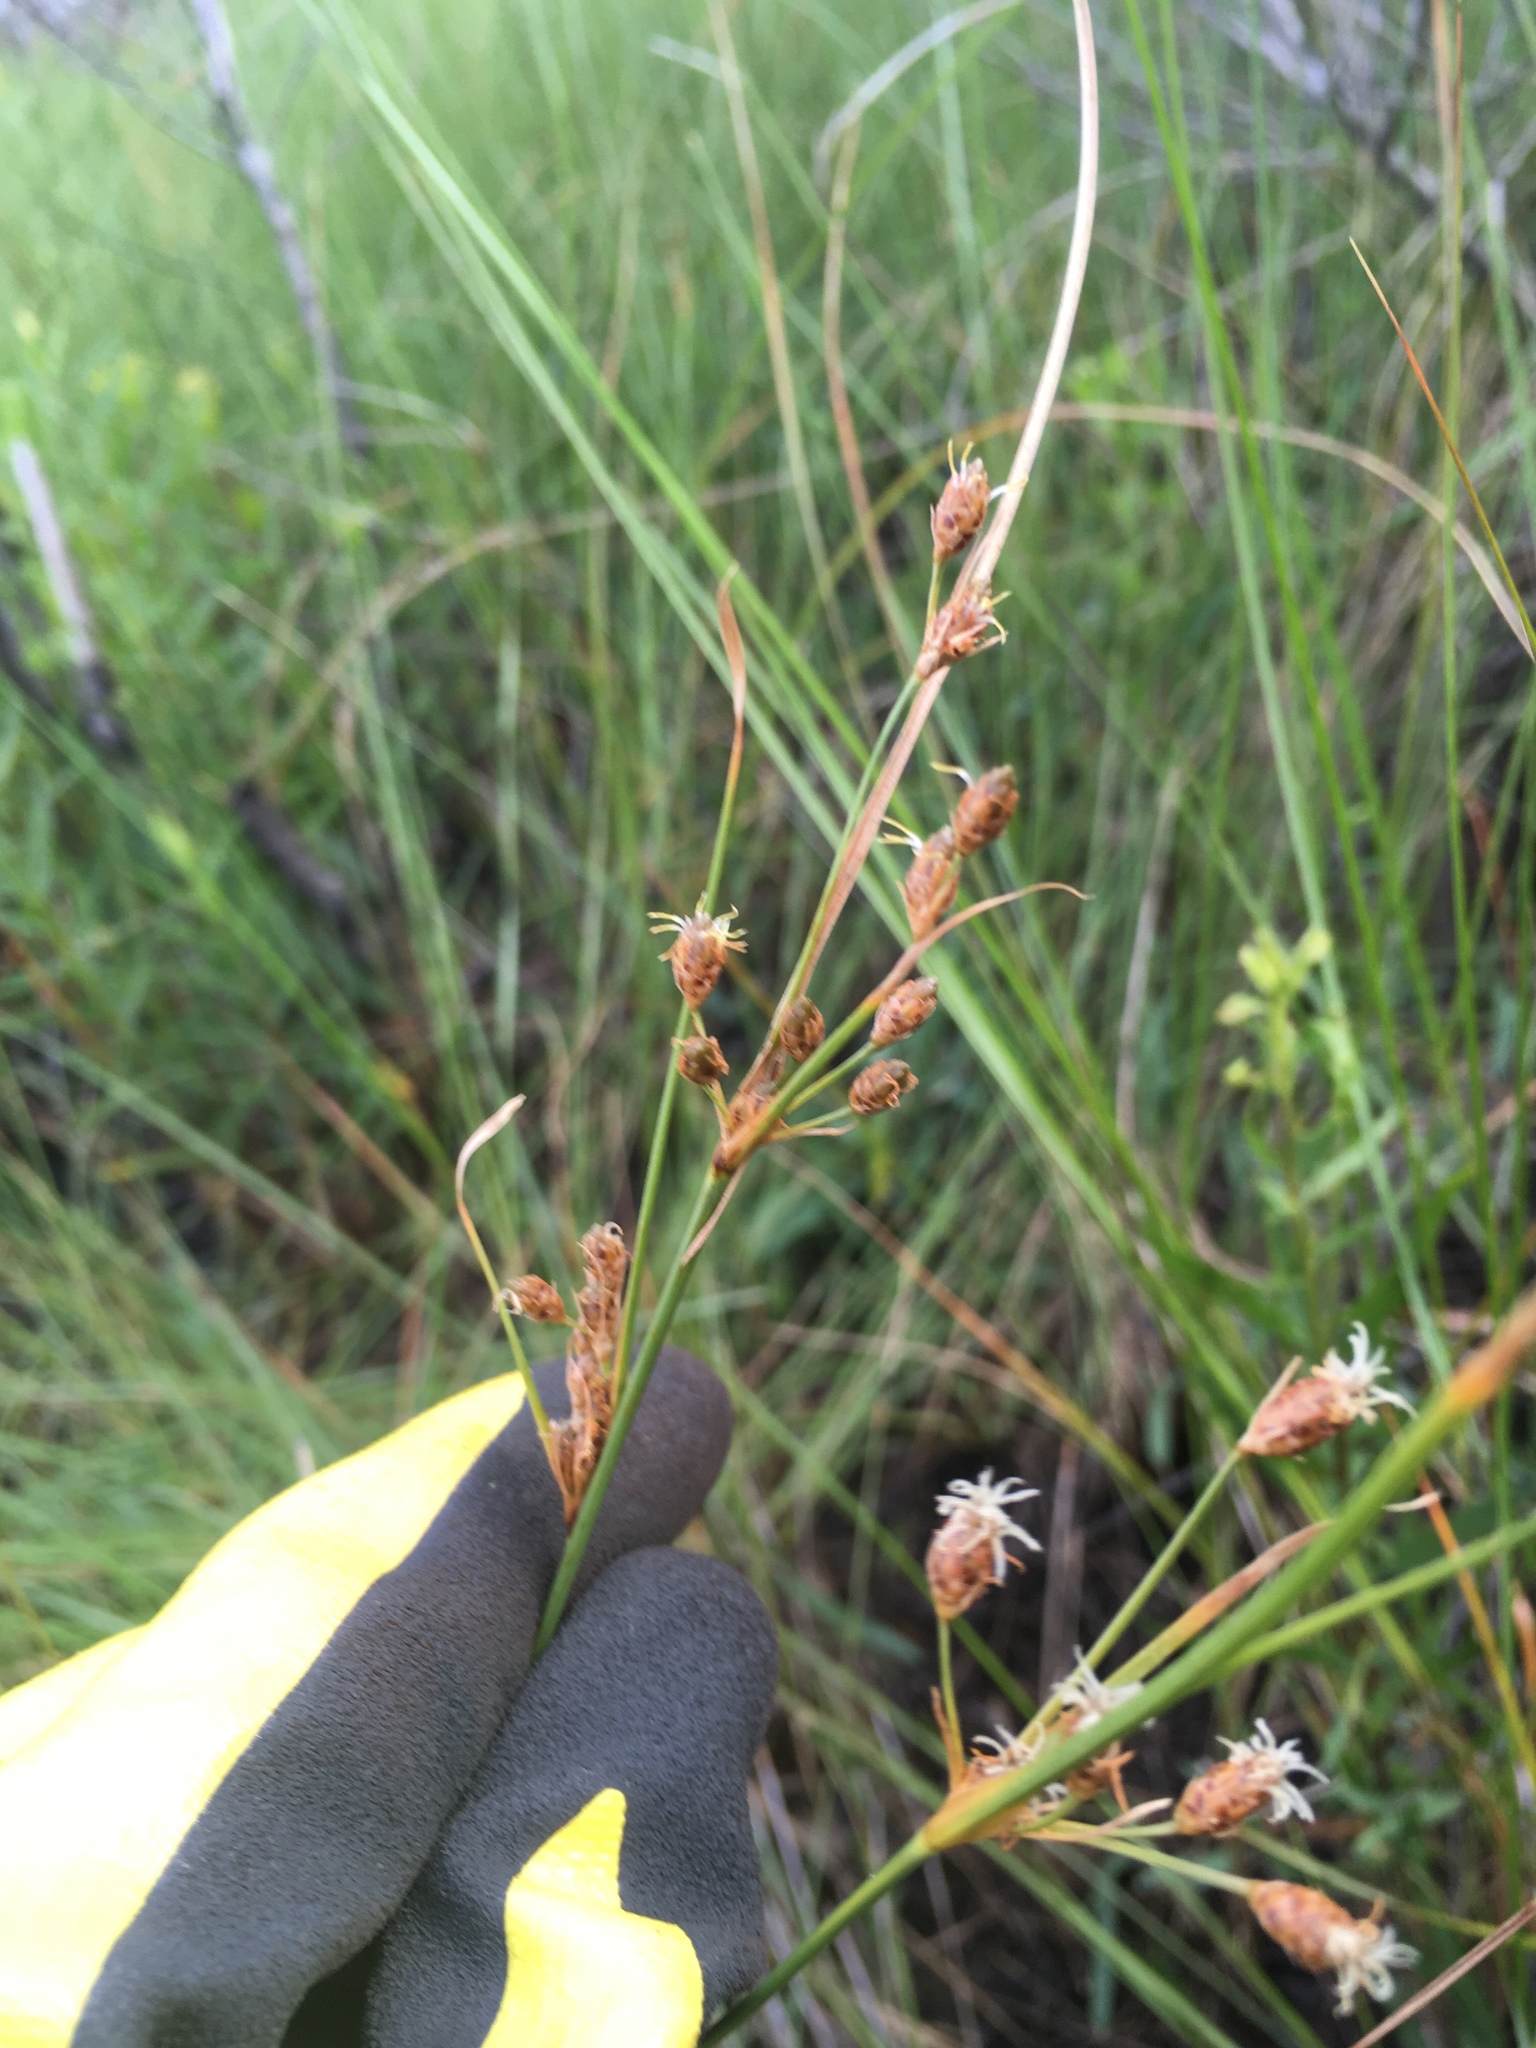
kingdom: Plantae
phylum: Tracheophyta
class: Liliopsida
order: Poales
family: Cyperaceae
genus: Fimbristylis
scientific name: Fimbristylis caroliniana
